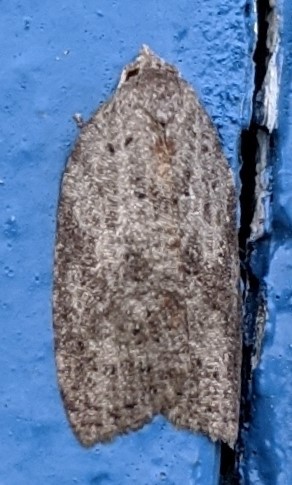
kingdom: Animalia
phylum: Arthropoda
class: Insecta
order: Lepidoptera
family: Tortricidae
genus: Amorbia
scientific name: Amorbia humerosana
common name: White-lined leafroller moth
